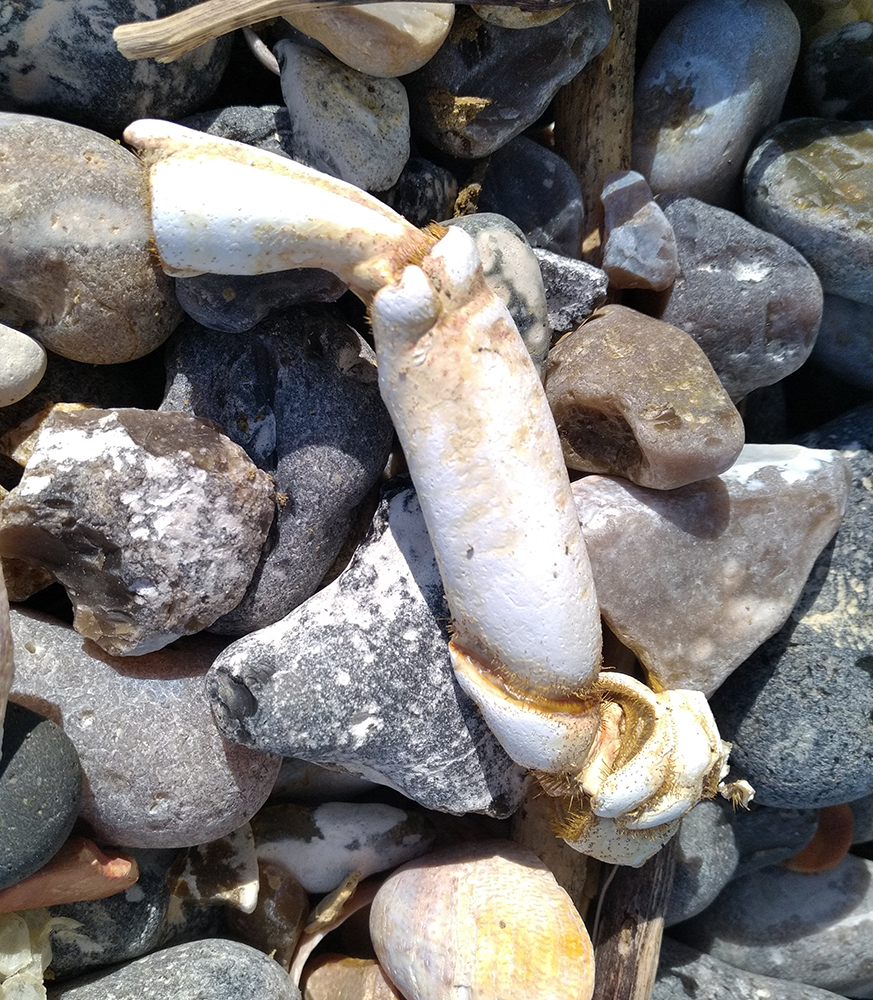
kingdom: Animalia
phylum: Arthropoda
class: Malacostraca
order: Decapoda
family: Majidae
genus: Maja
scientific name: Maja brachydactyla
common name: Common spider crab
